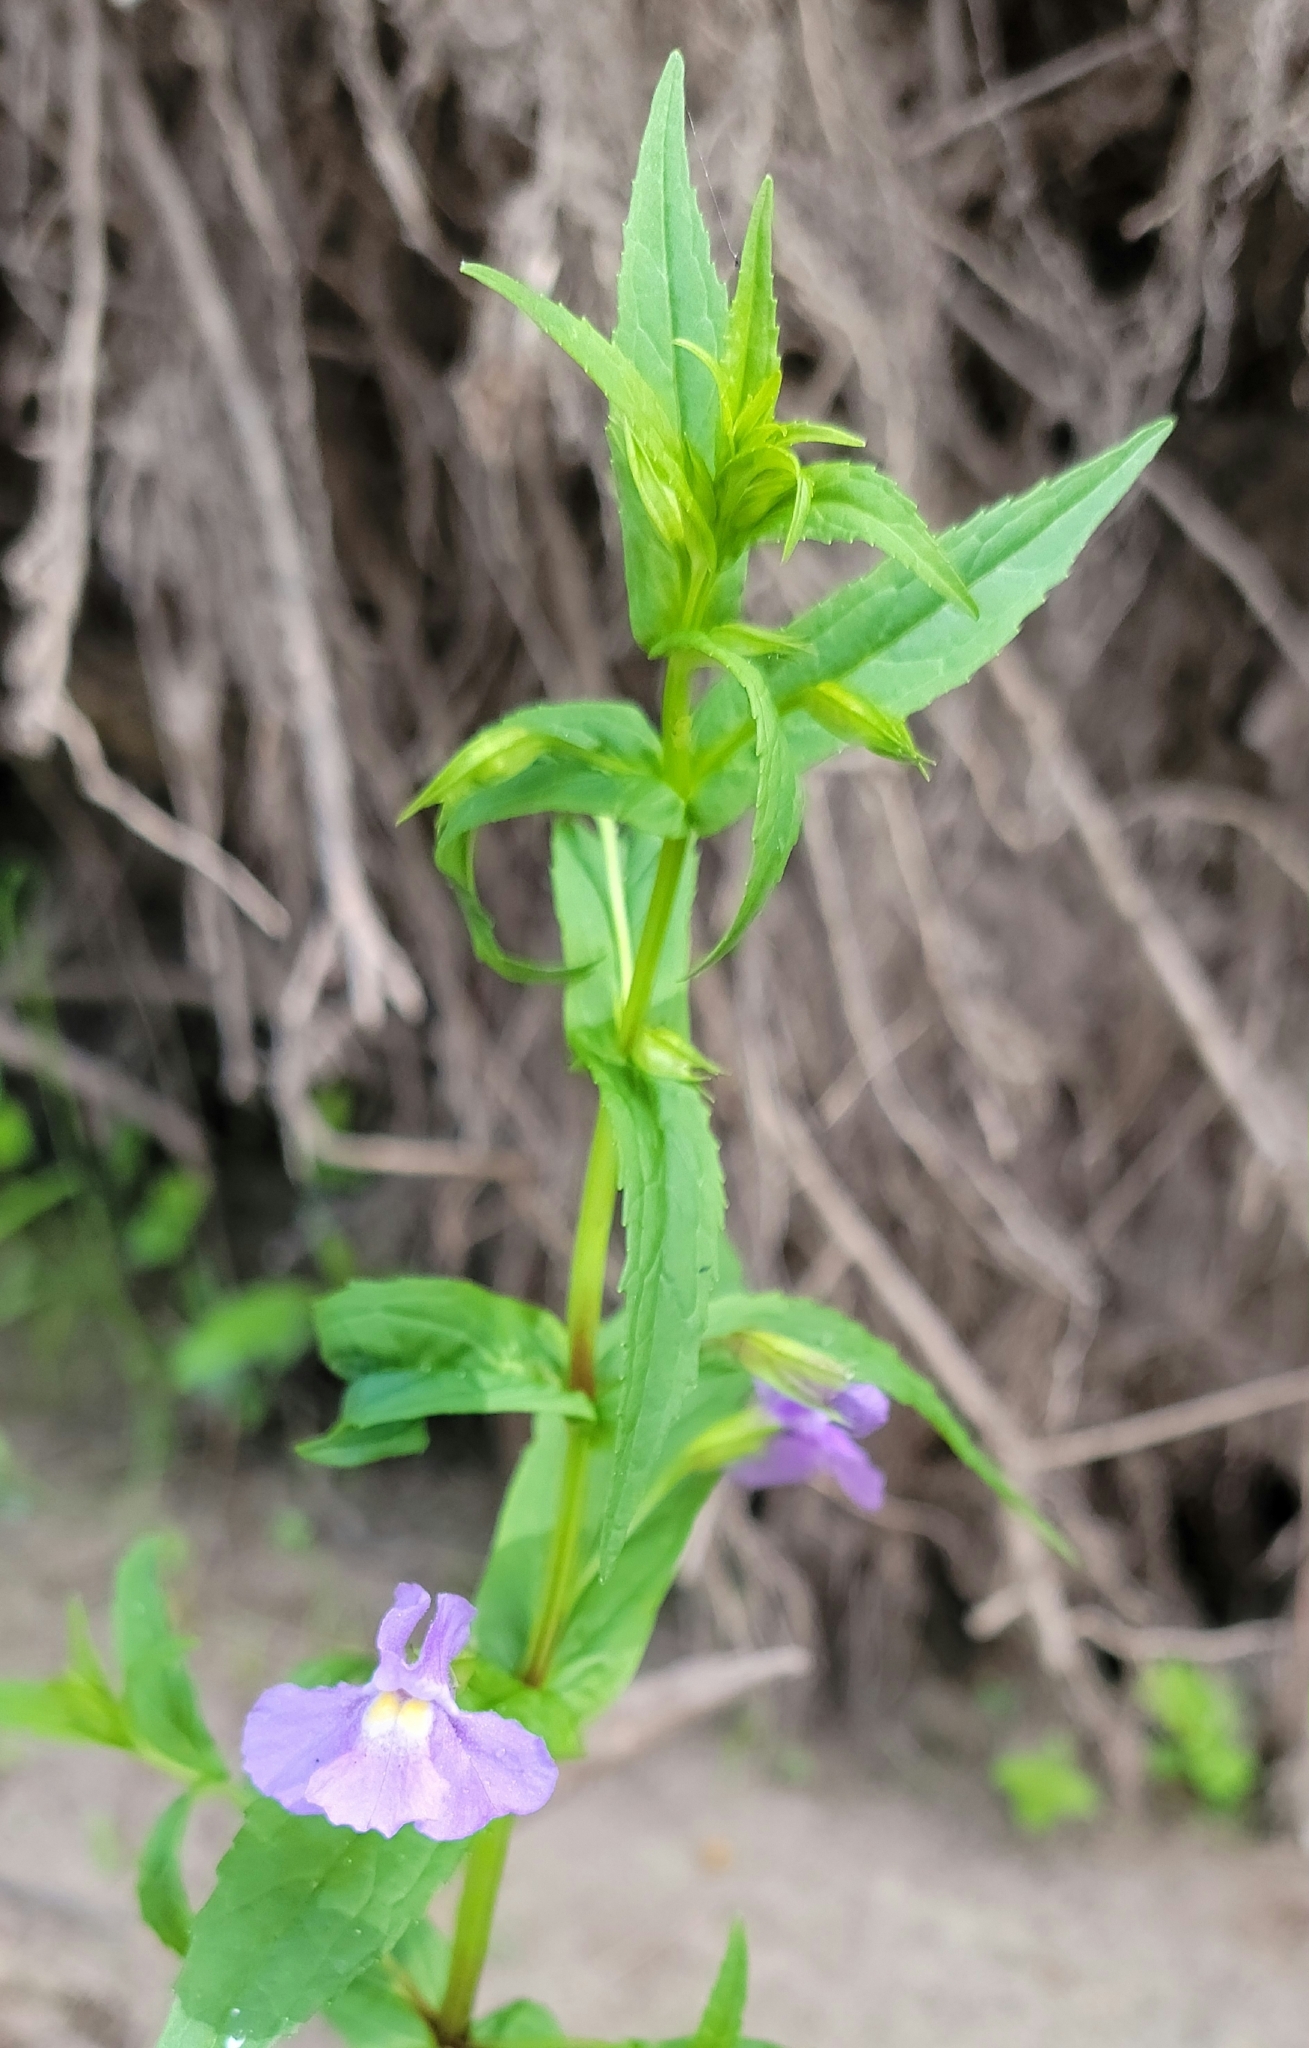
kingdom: Plantae
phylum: Tracheophyta
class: Magnoliopsida
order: Lamiales
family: Phrymaceae
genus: Mimulus
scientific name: Mimulus ringens
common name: Allegheny monkeyflower
